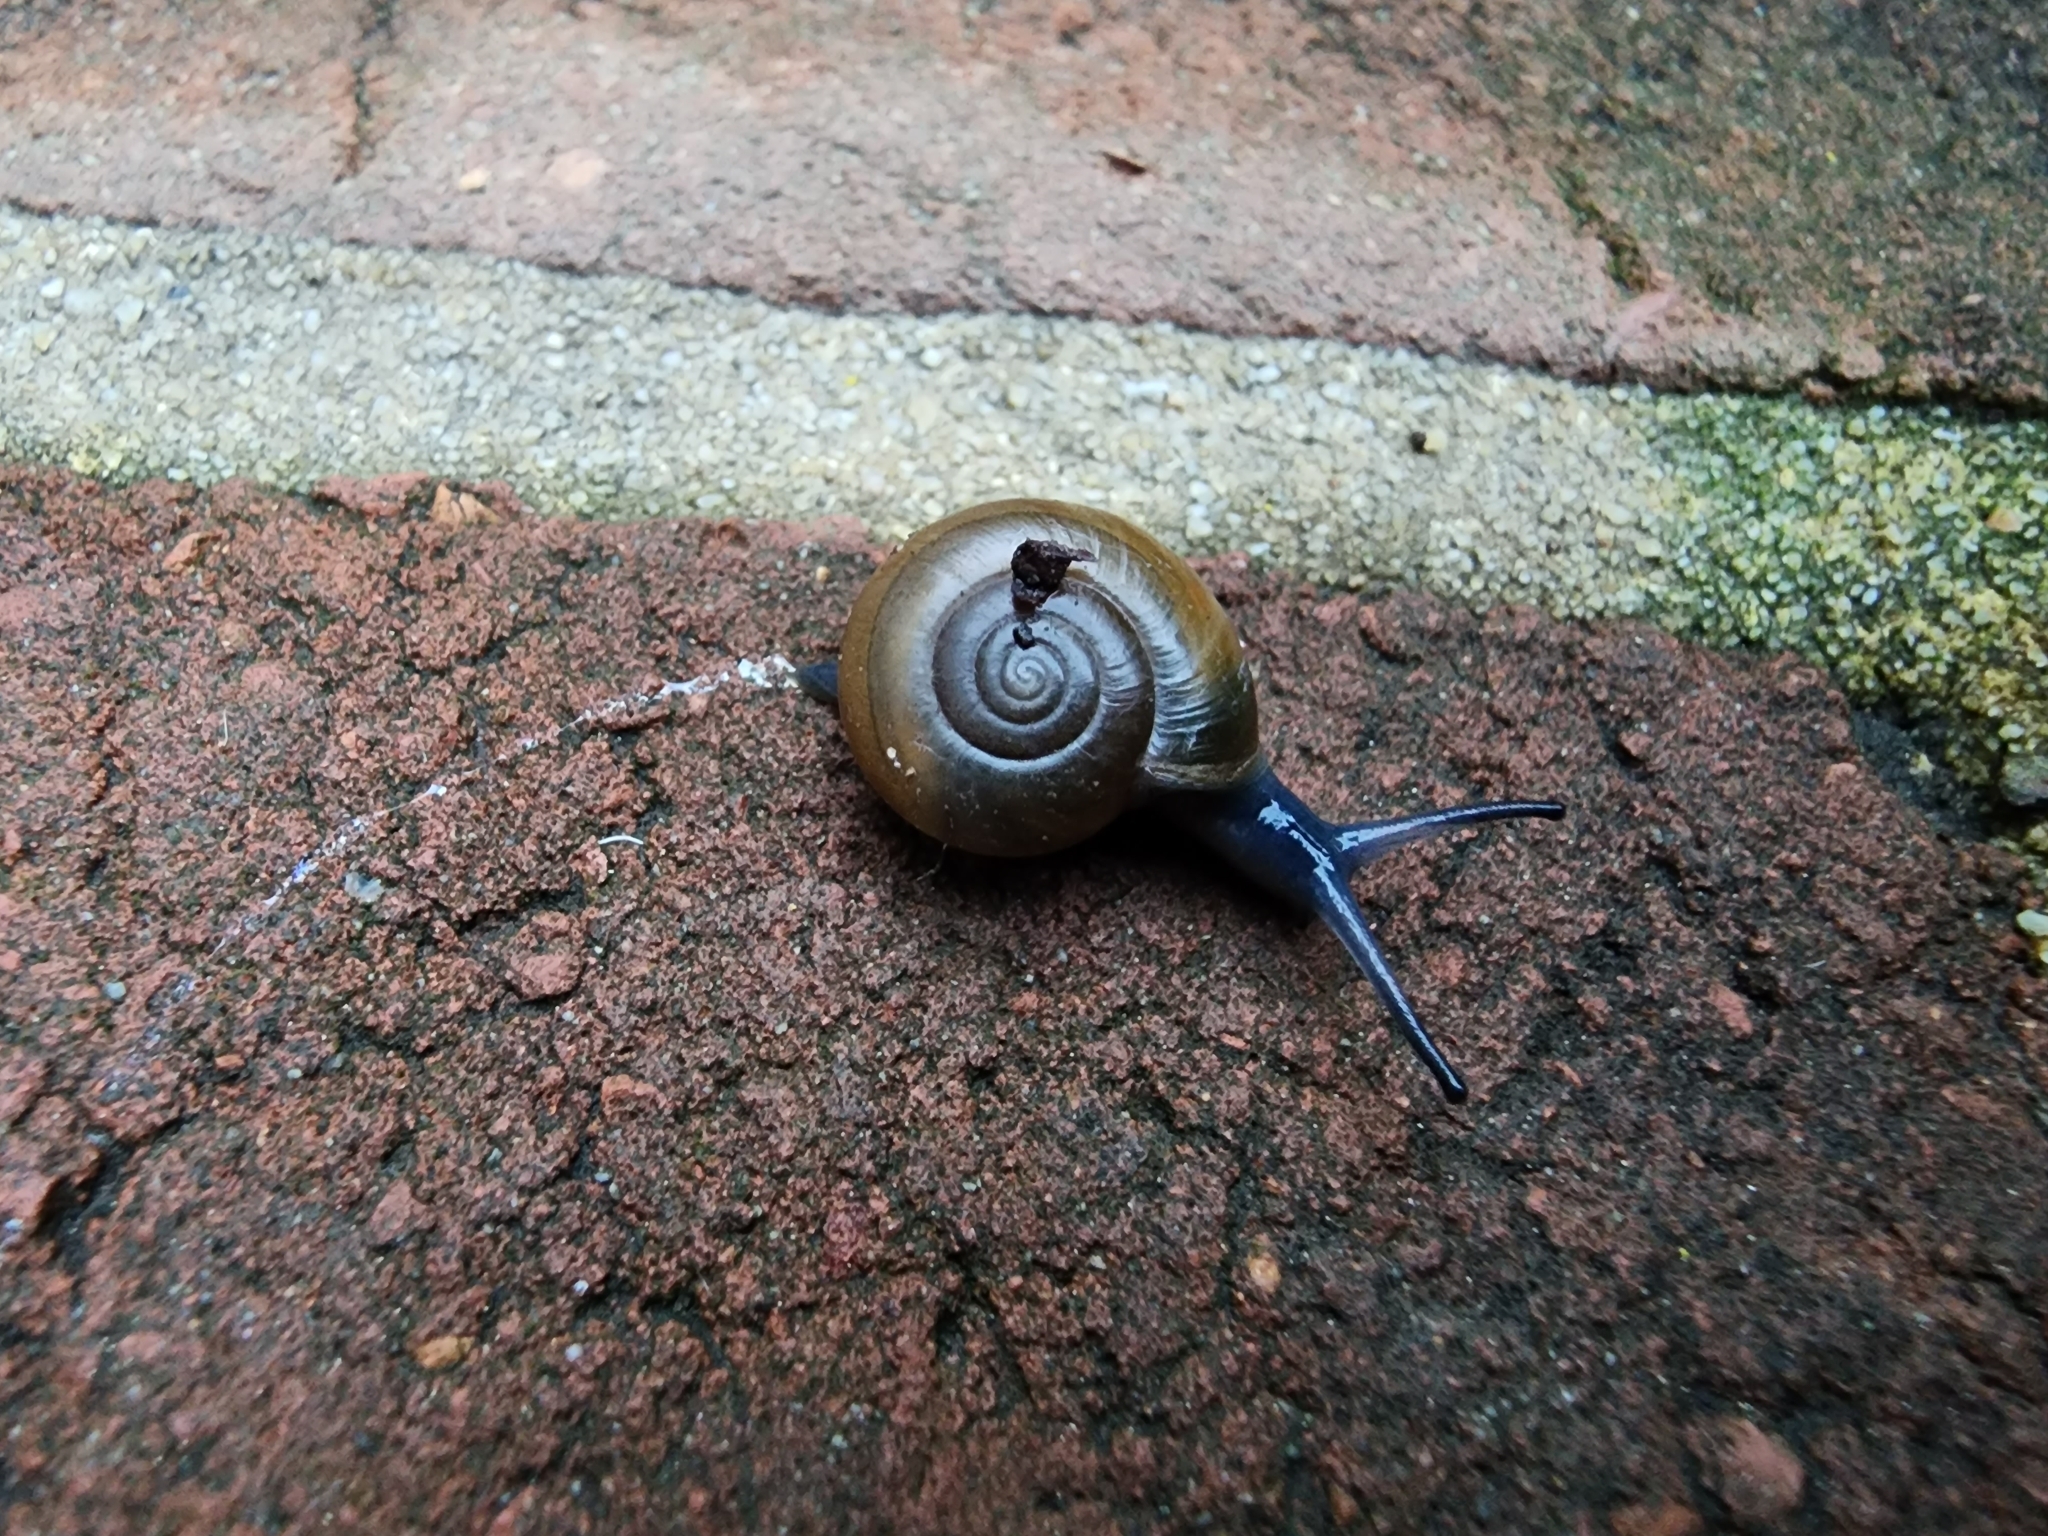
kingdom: Animalia
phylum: Mollusca
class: Gastropoda
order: Stylommatophora
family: Oxychilidae
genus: Oxychilus
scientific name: Oxychilus draparnaudi
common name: Draparnaud's glass snail
